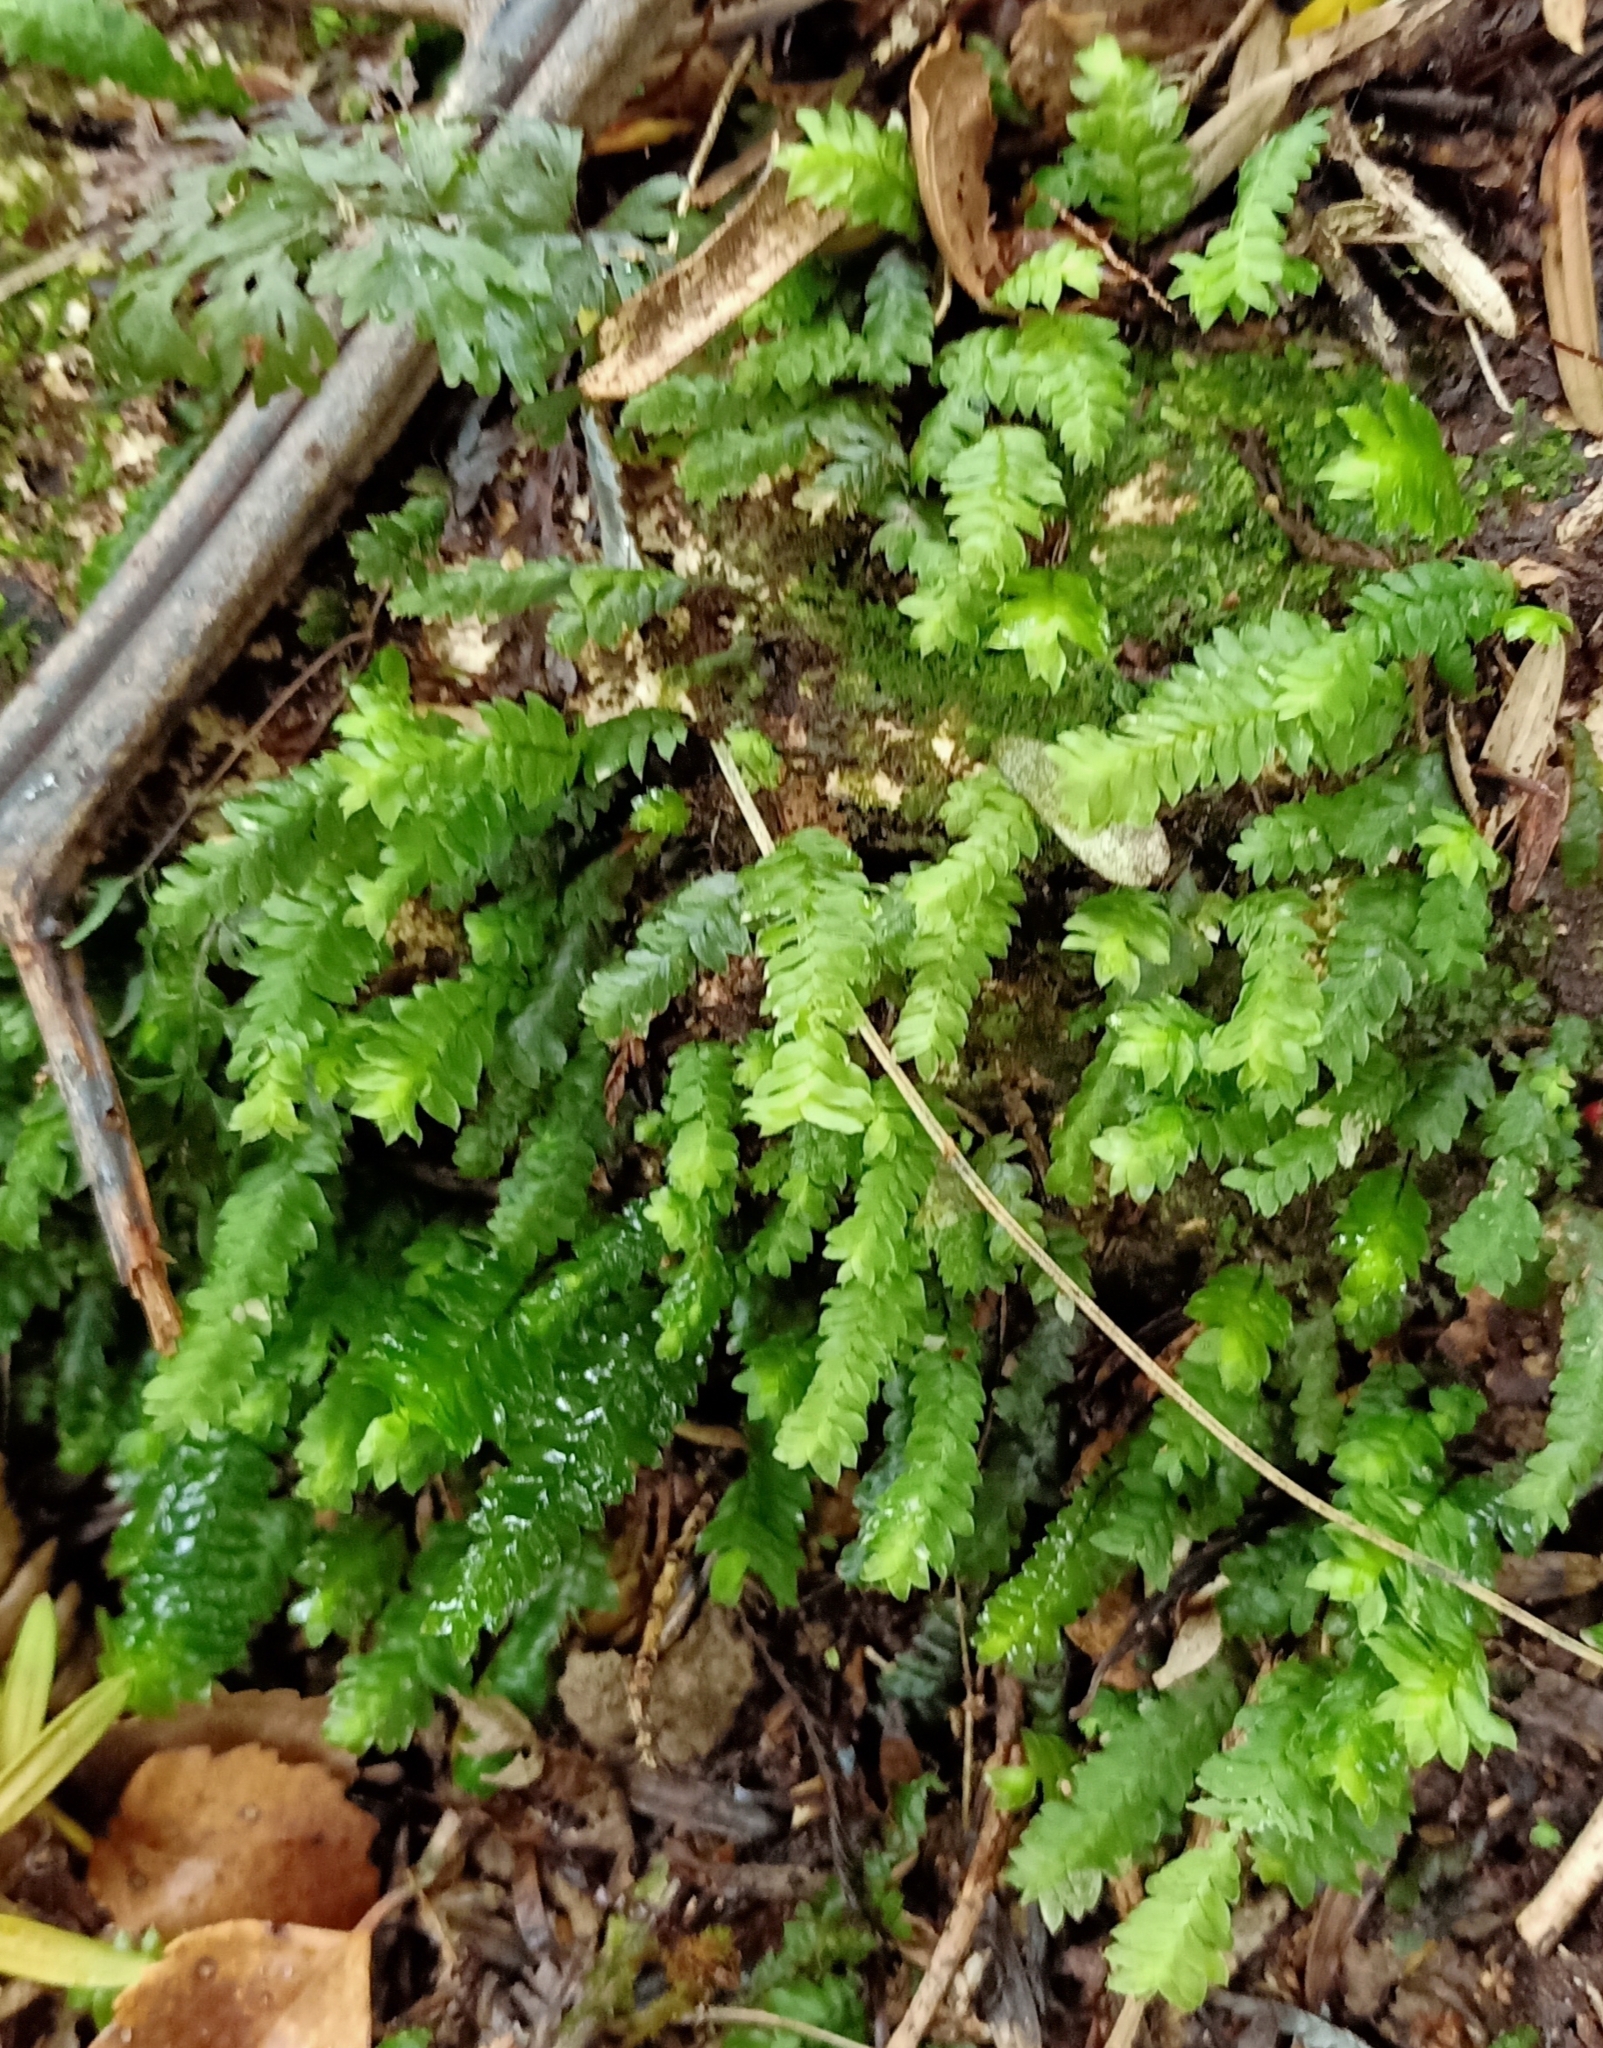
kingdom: Plantae
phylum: Bryophyta
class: Bryopsida
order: Hypopterygiales
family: Hypopterygiaceae
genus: Cyathophorum
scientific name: Cyathophorum bulbosum
